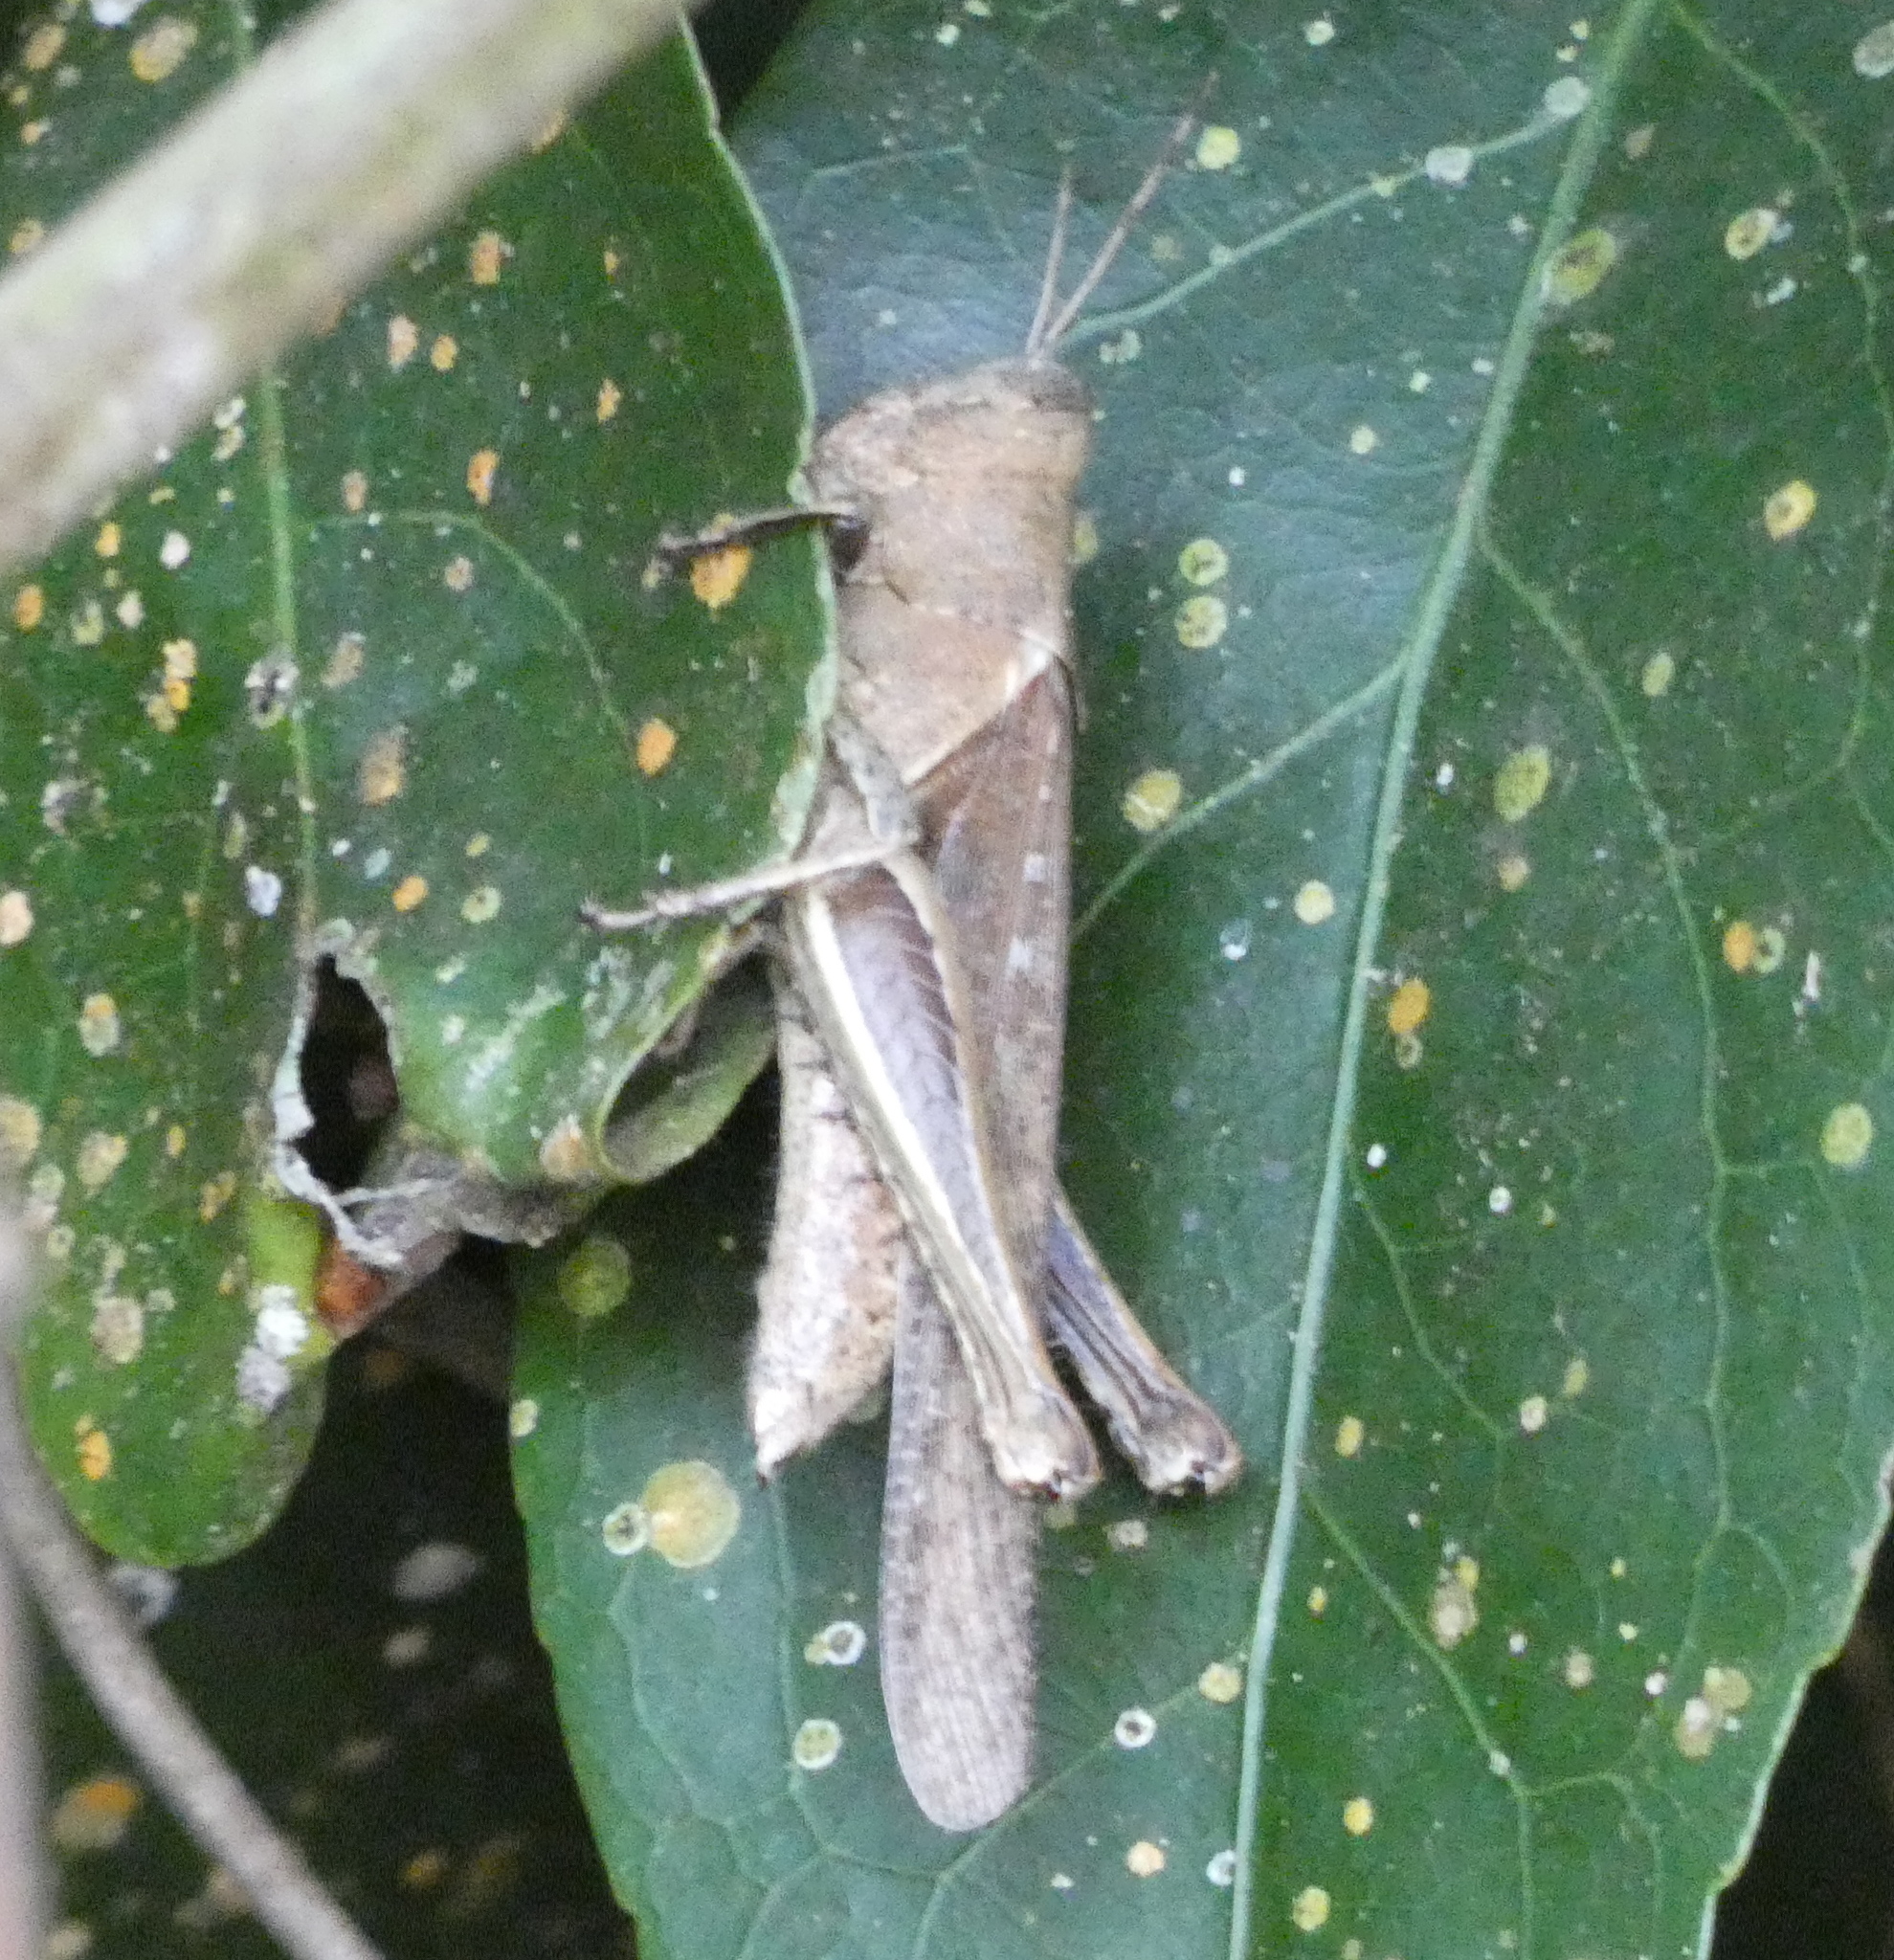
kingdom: Animalia
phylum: Arthropoda
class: Insecta
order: Orthoptera
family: Acrididae
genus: Abracris
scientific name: Abracris flavolineata
